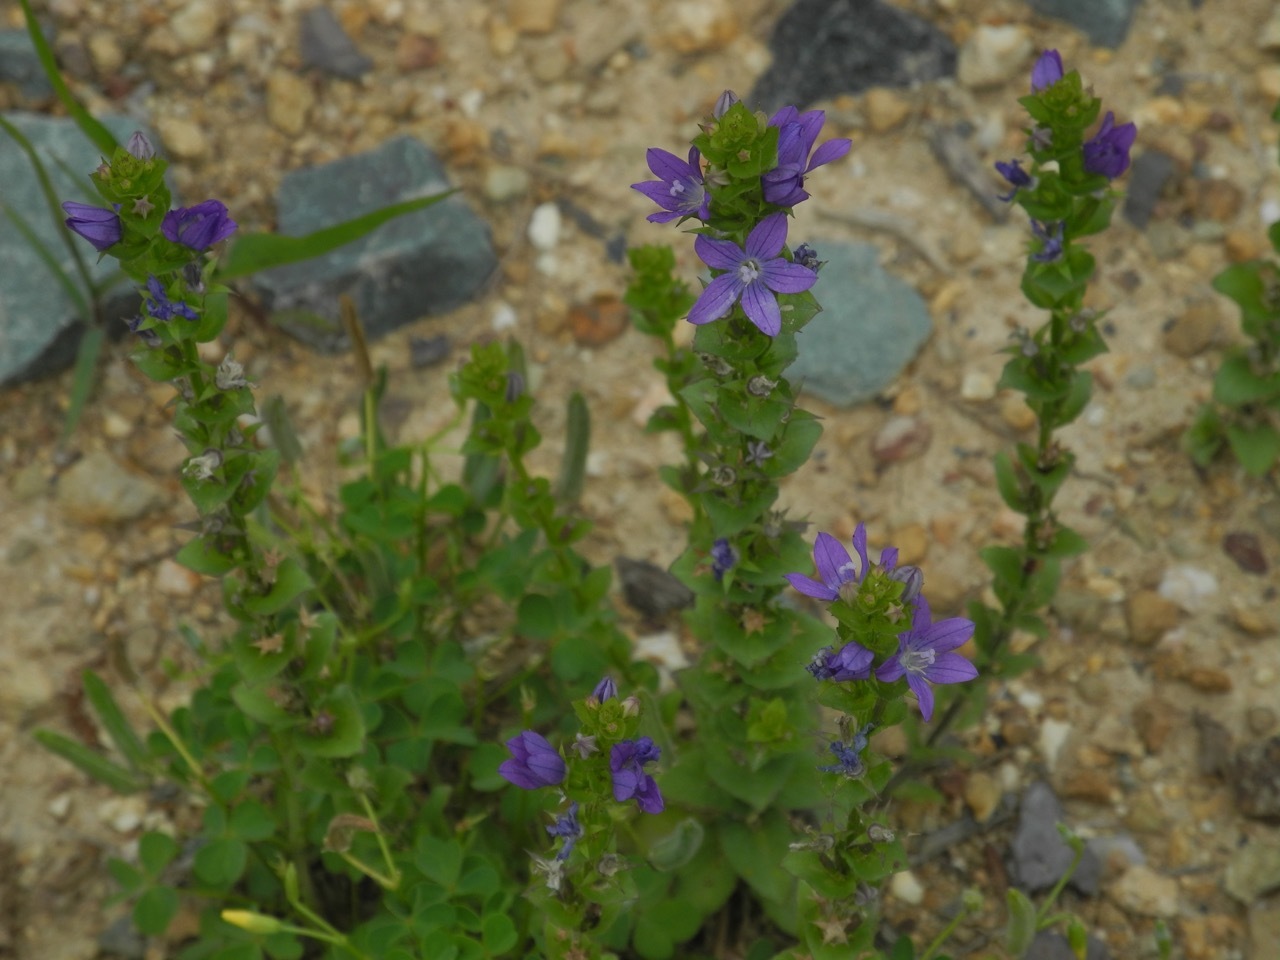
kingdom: Plantae
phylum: Tracheophyta
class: Magnoliopsida
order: Asterales
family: Campanulaceae
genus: Triodanis
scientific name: Triodanis perfoliata
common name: Clasping venus' looking-glass
